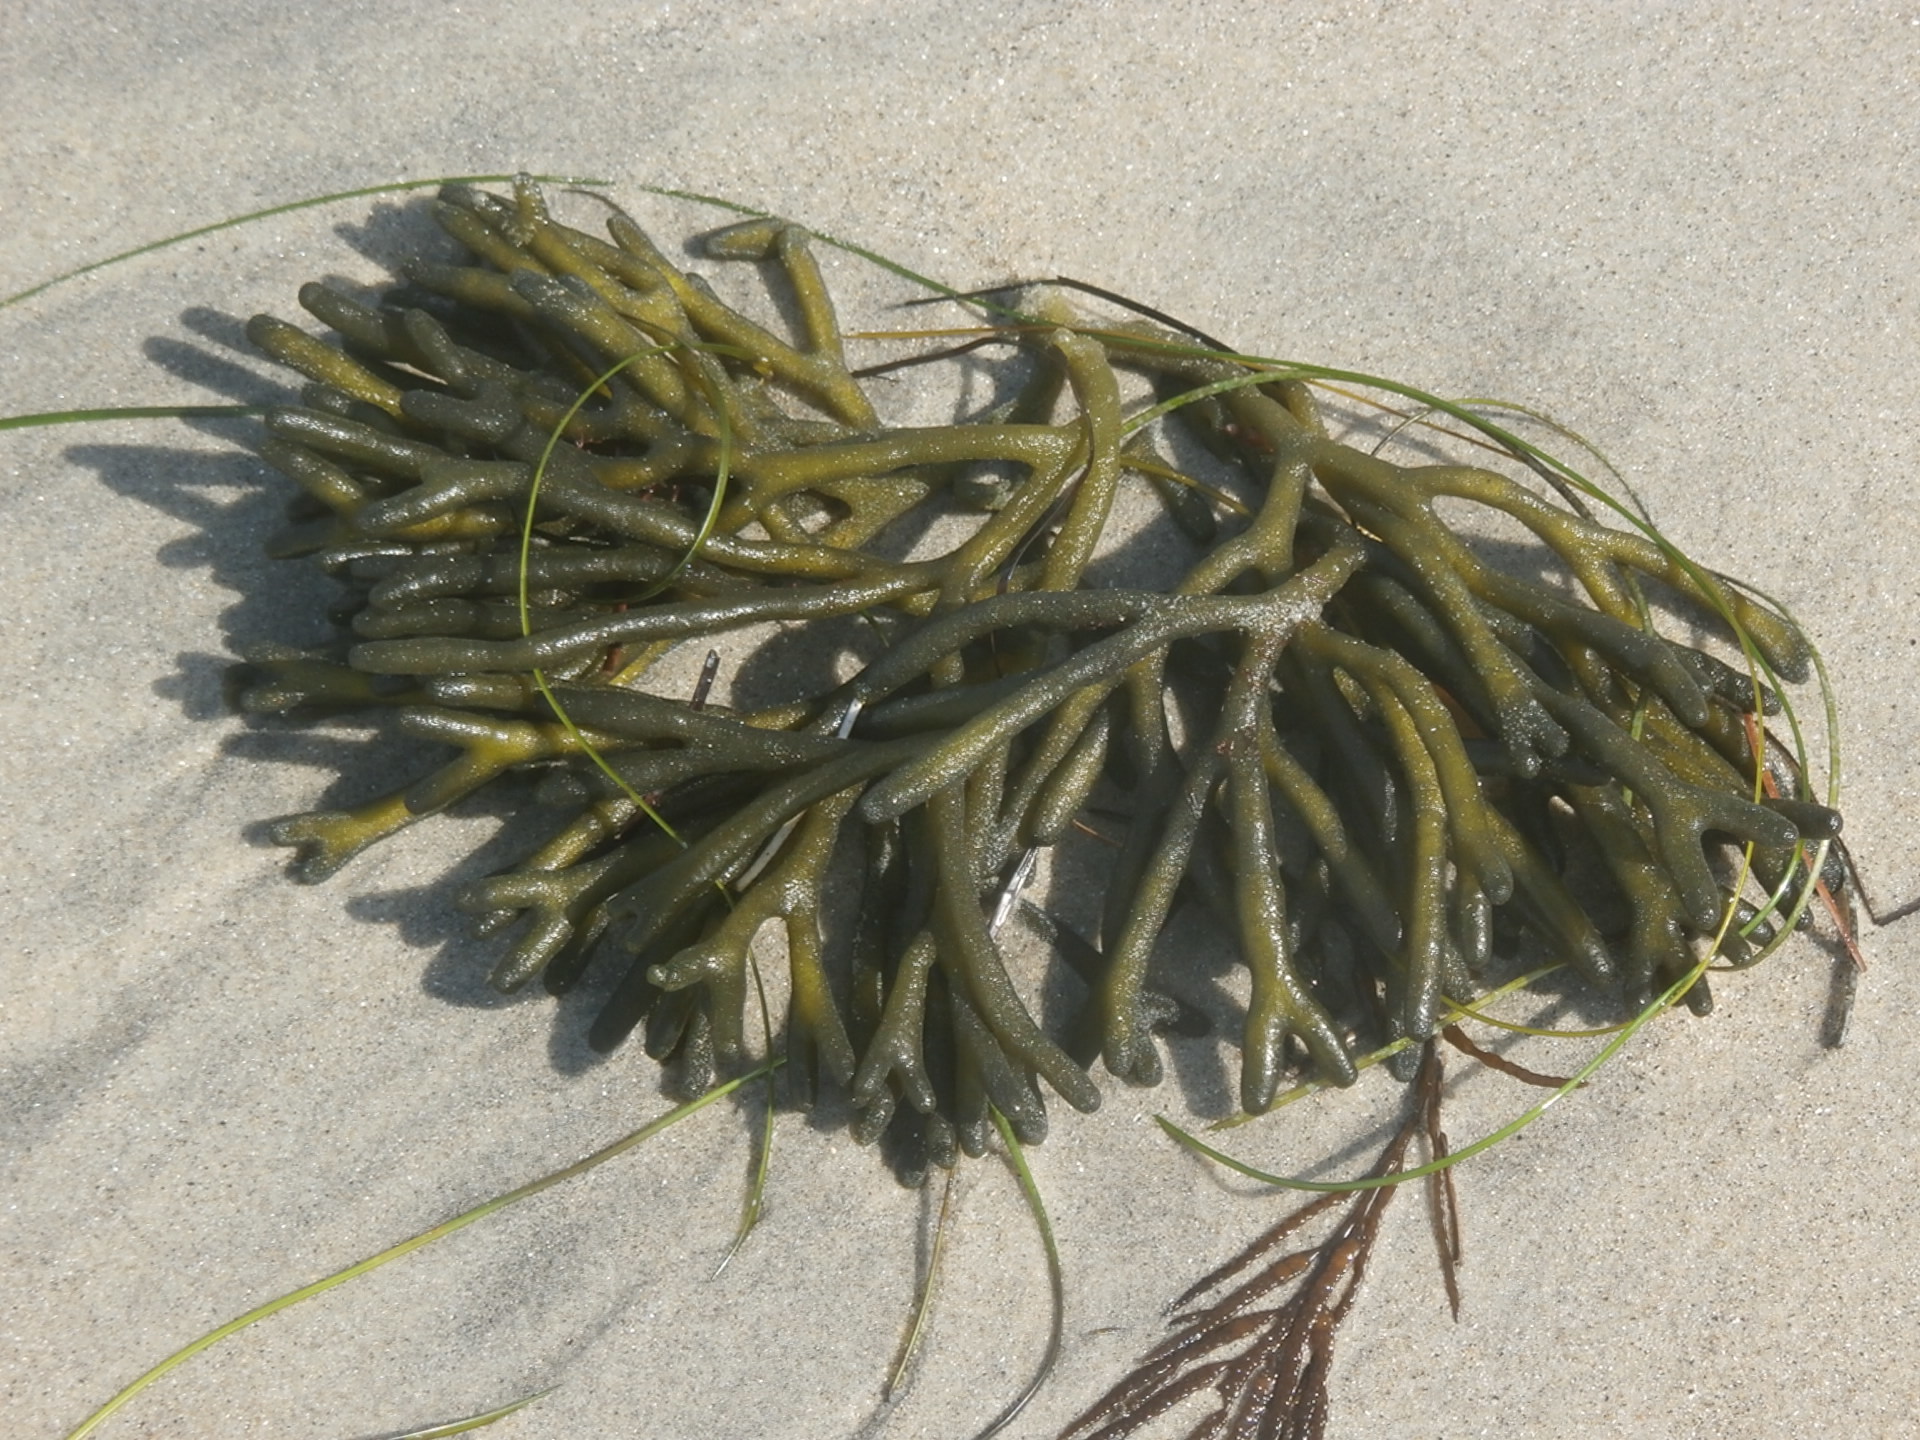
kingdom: Plantae
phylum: Chlorophyta
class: Ulvophyceae
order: Bryopsidales
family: Codiaceae
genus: Codium
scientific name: Codium fragile
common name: Dead man's fingers
